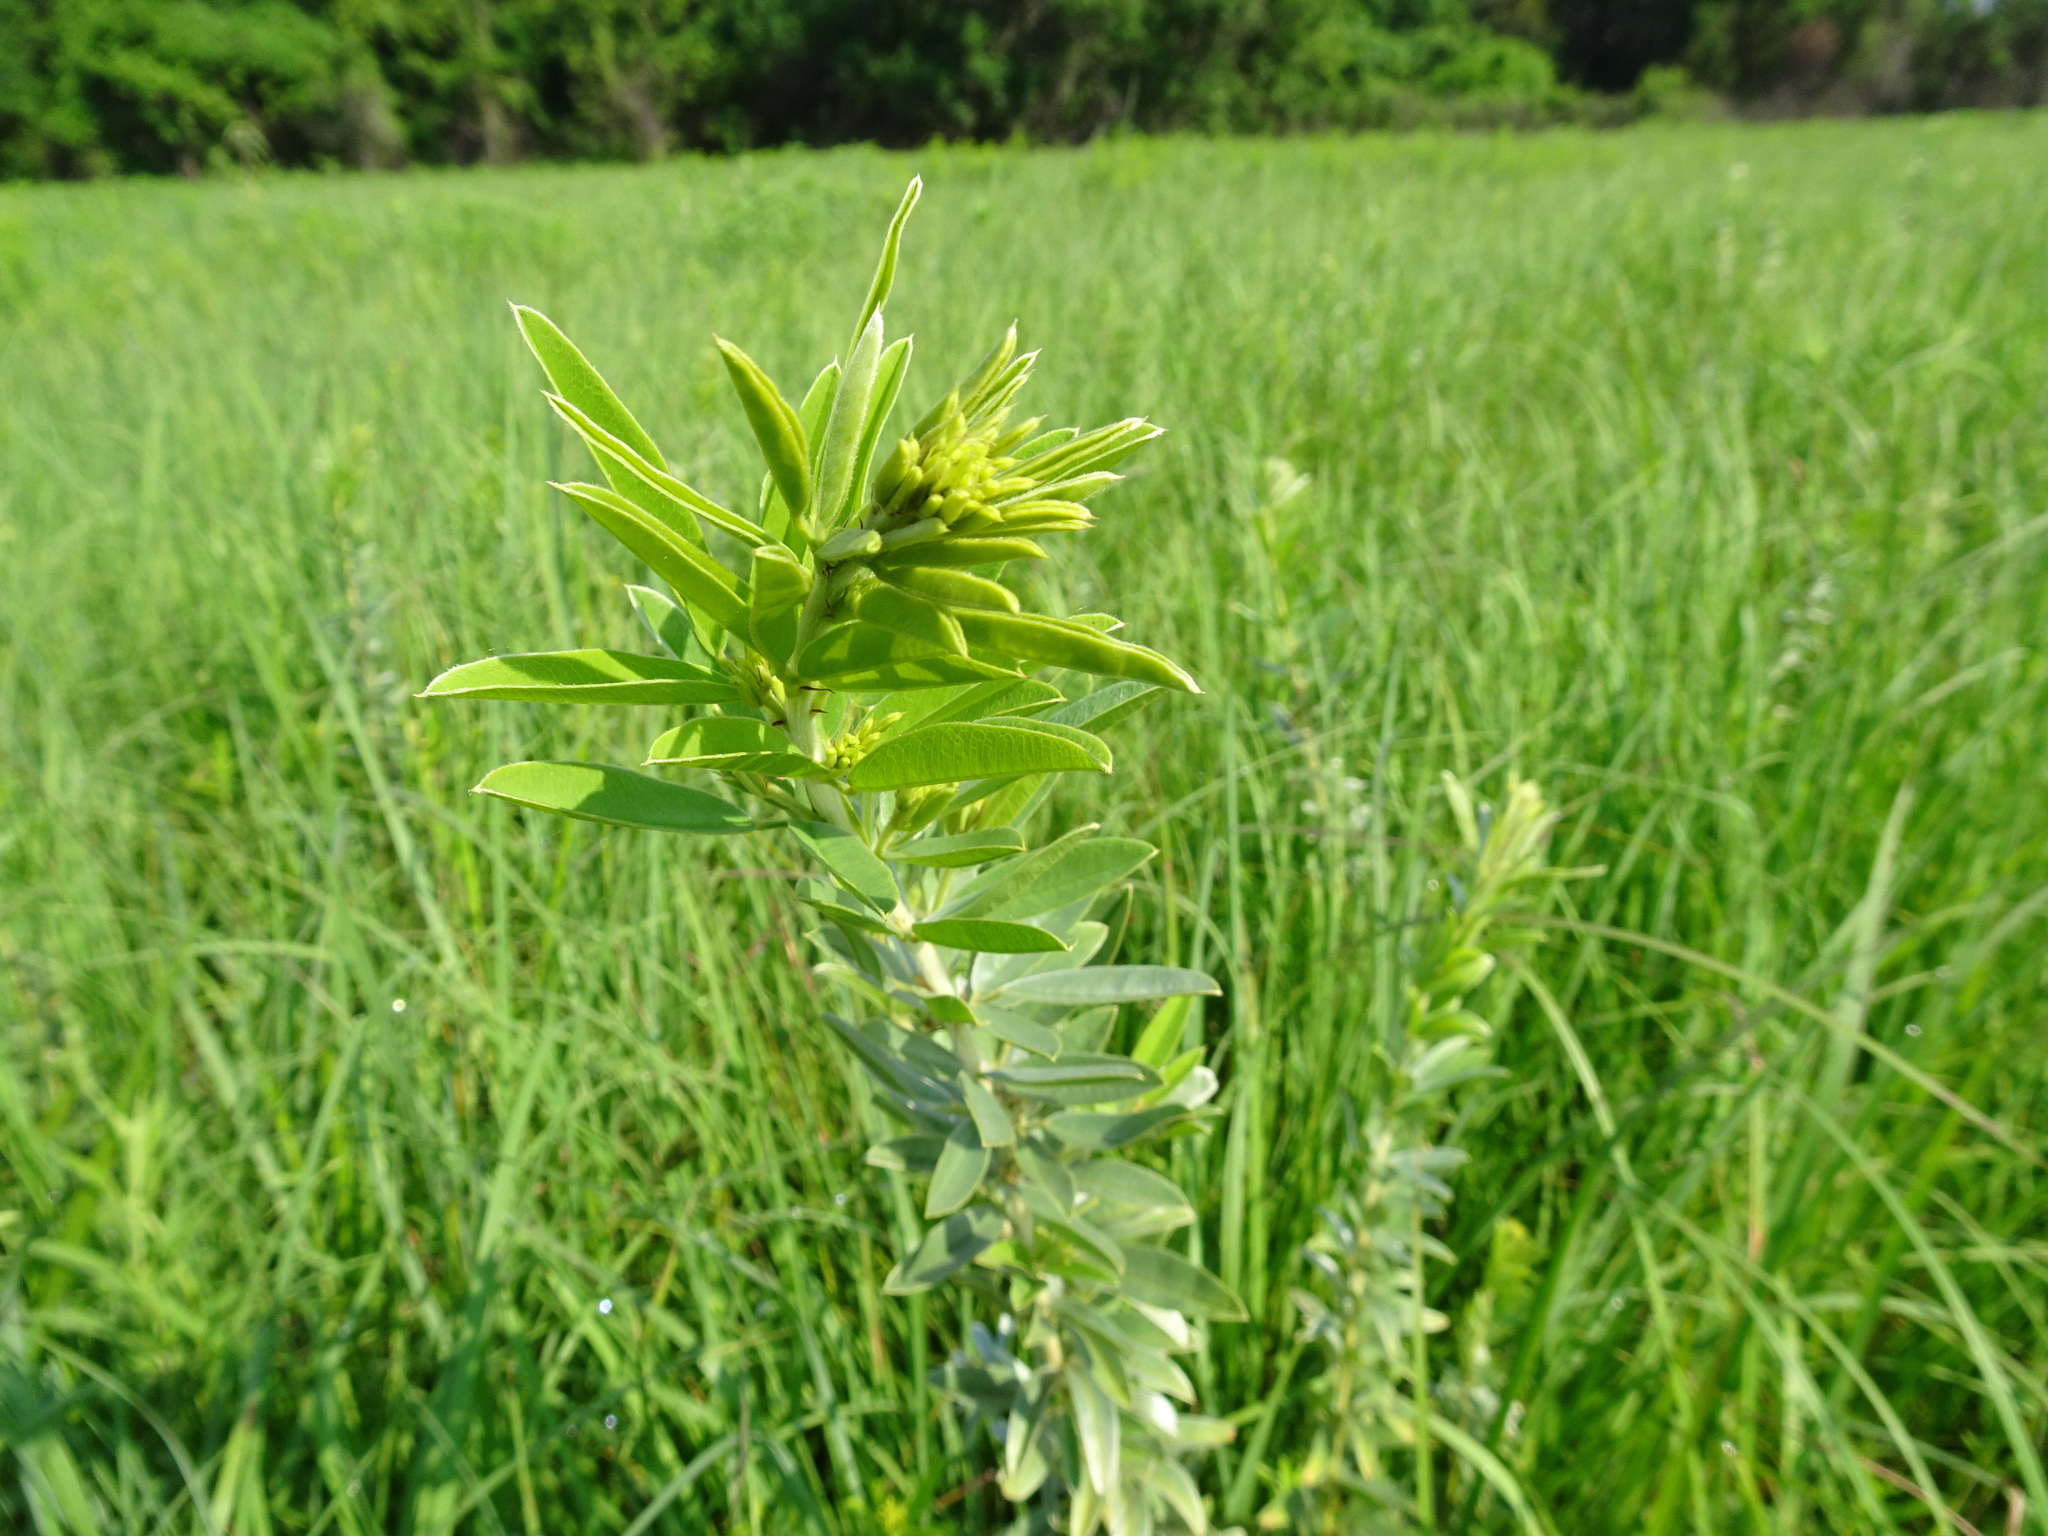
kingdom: Plantae
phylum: Tracheophyta
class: Magnoliopsida
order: Fabales
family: Fabaceae
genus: Lespedeza
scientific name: Lespedeza capitata
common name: Dusty clover
